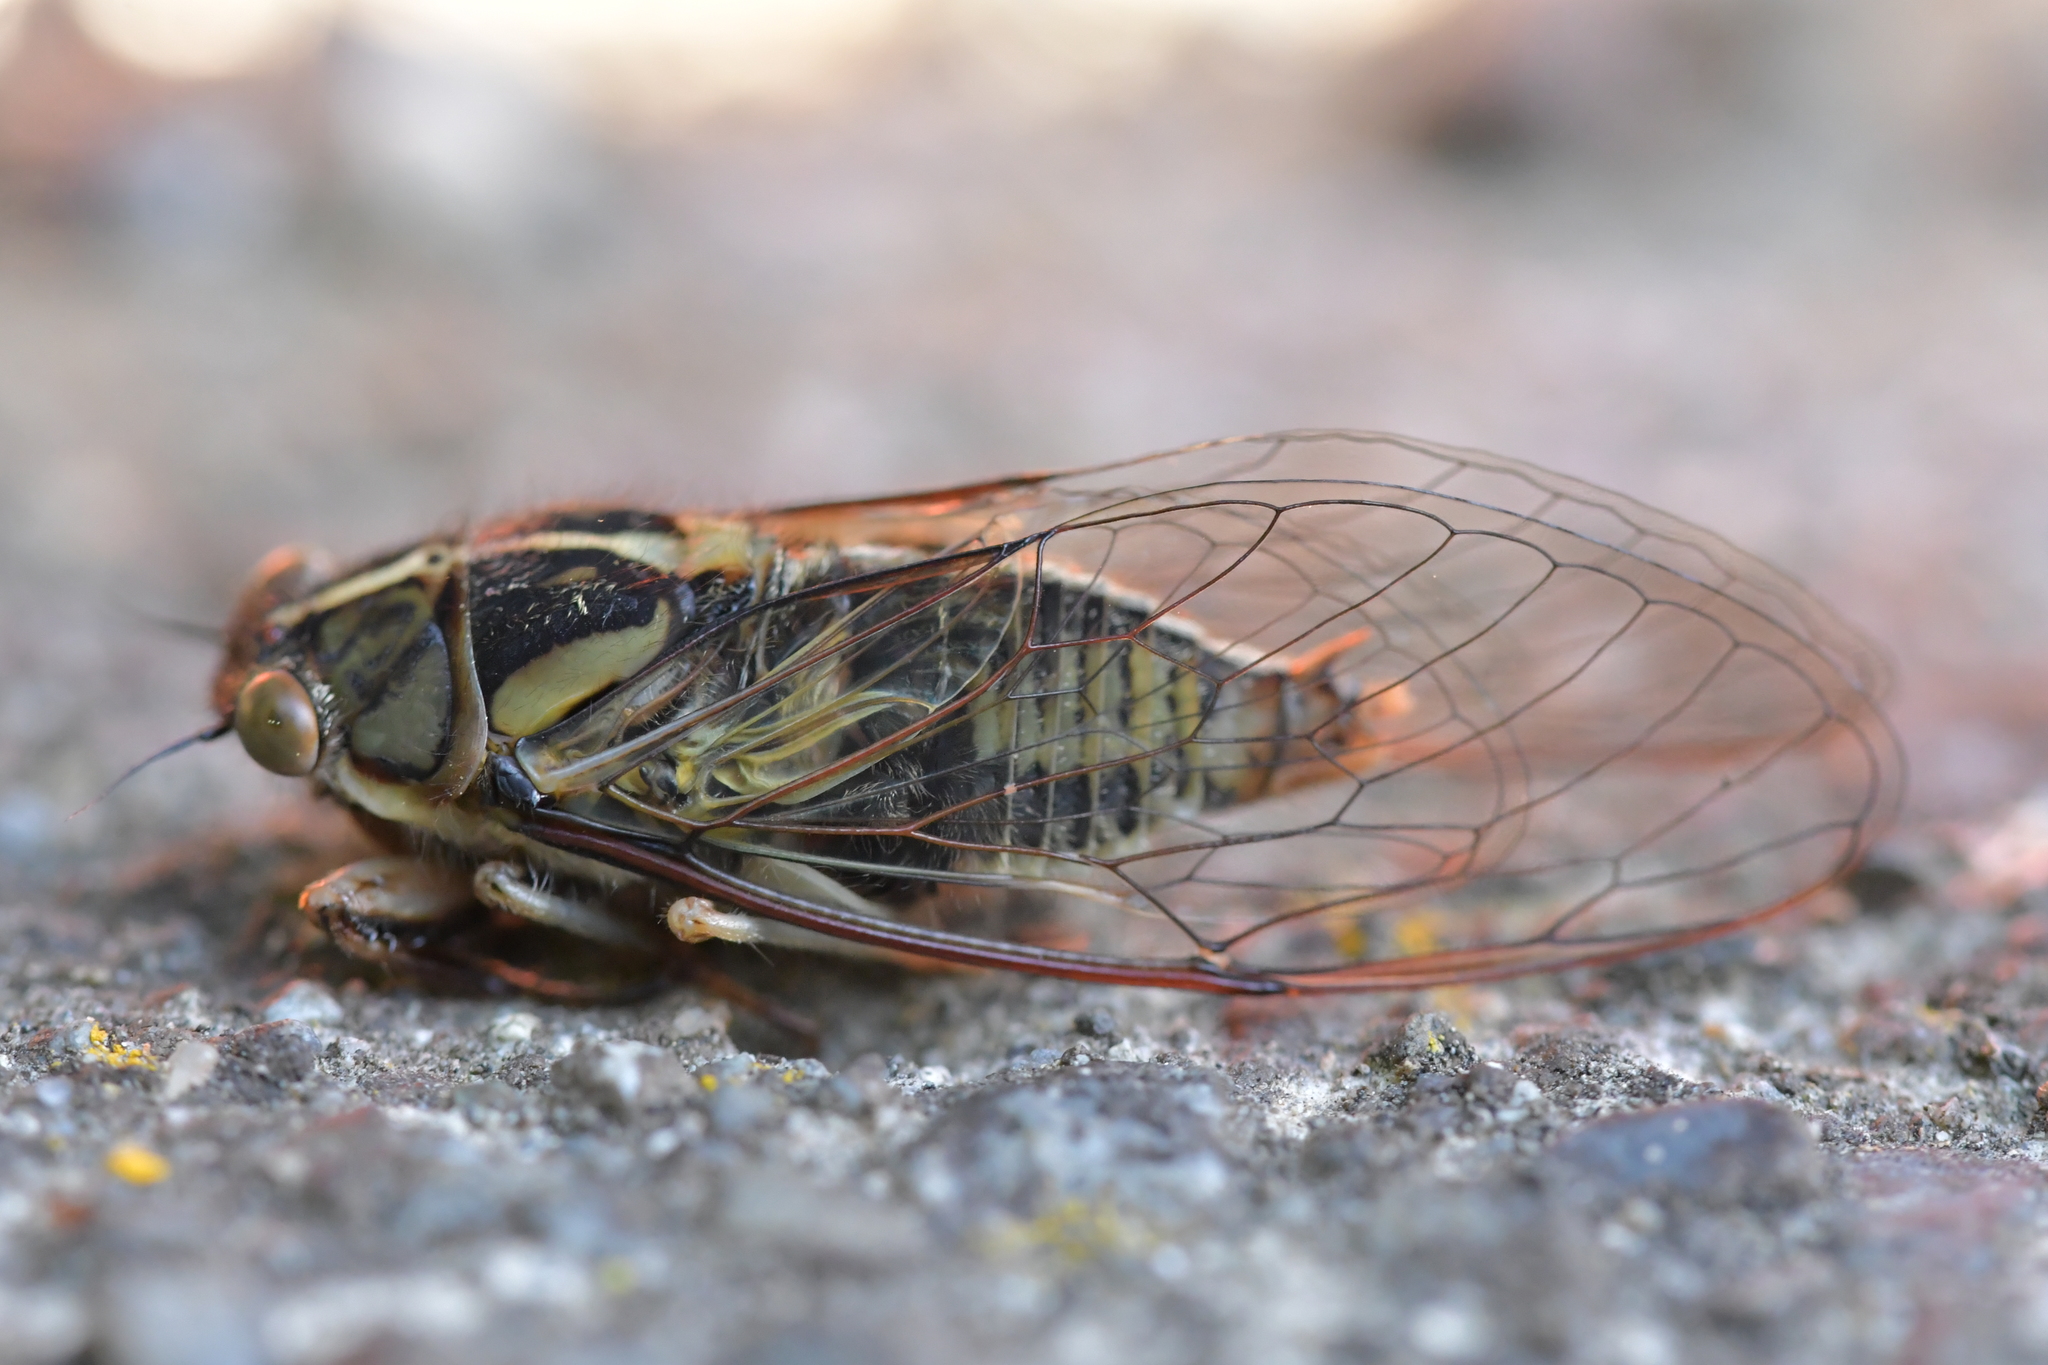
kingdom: Animalia
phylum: Arthropoda
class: Insecta
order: Hemiptera
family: Cicadidae
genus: Kikihia
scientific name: Kikihia muta
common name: Variable cicada
